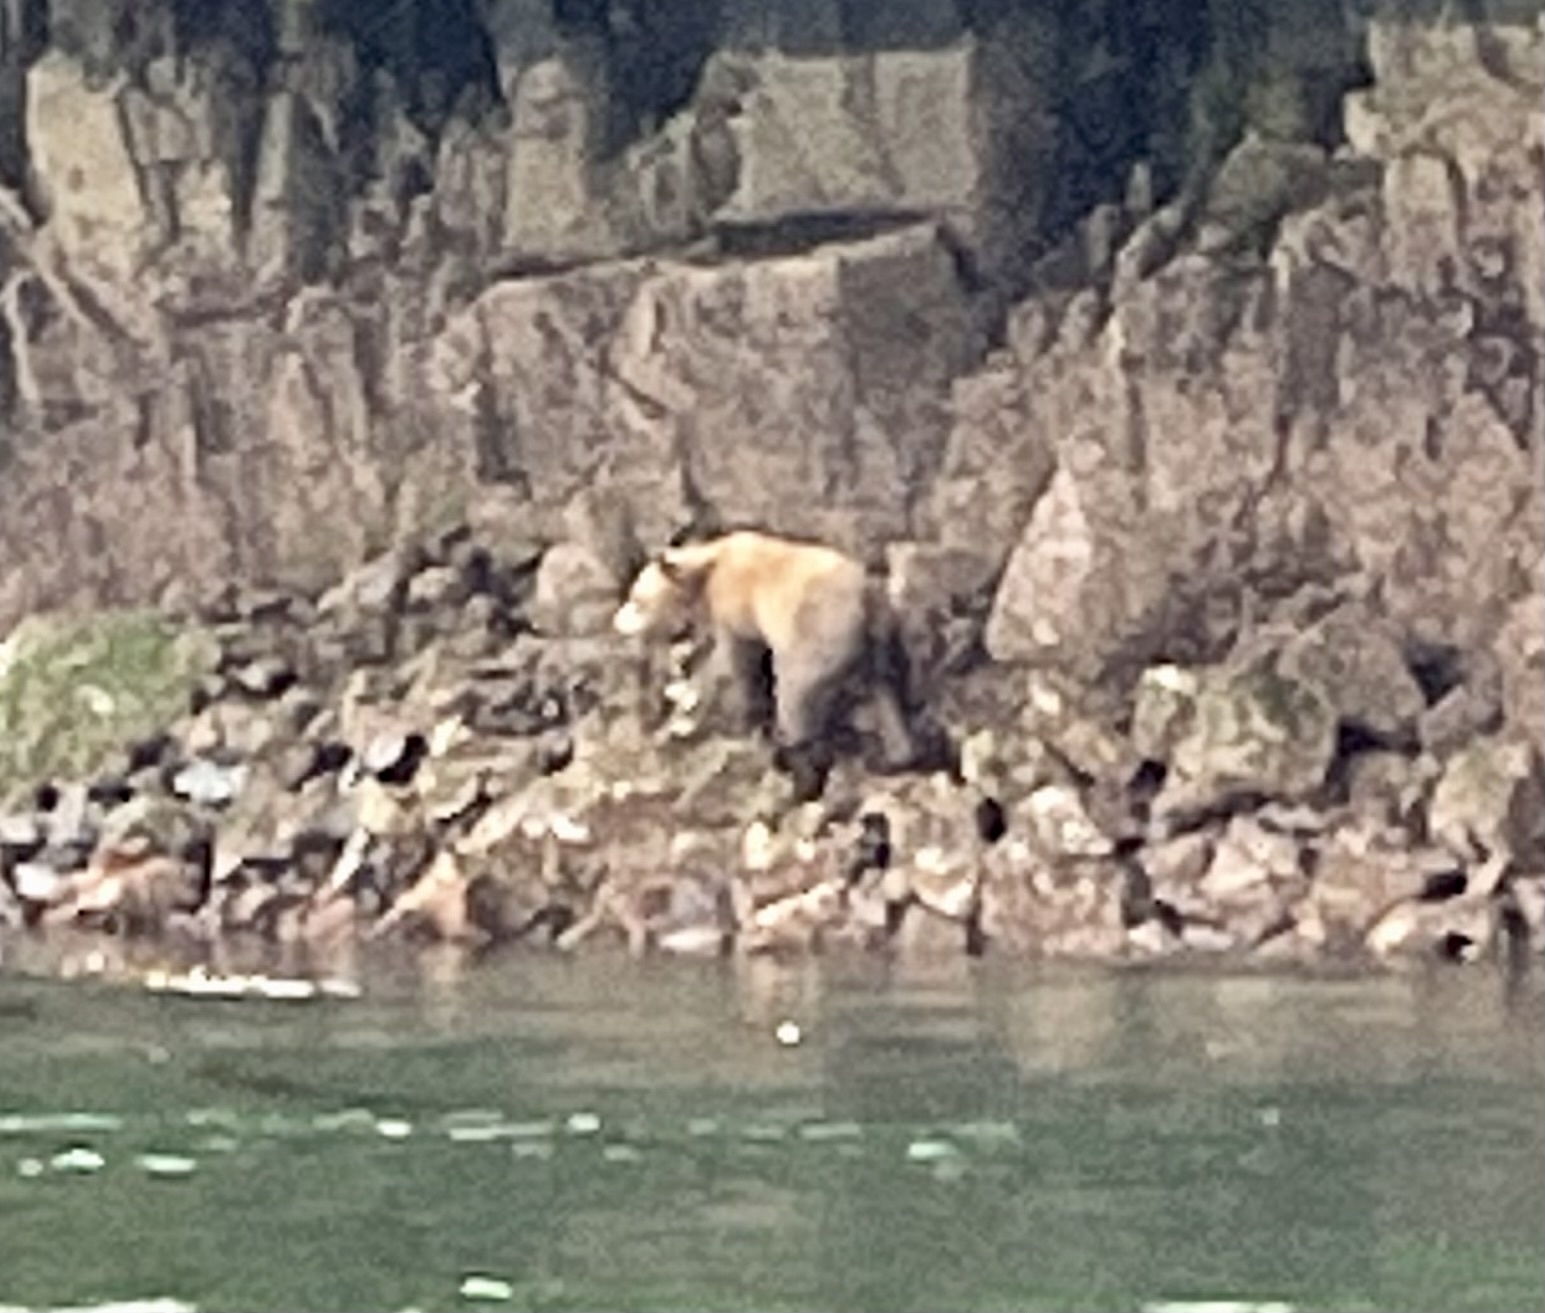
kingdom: Animalia
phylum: Chordata
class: Mammalia
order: Carnivora
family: Ursidae
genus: Ursus
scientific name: Ursus arctos
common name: Brown bear
